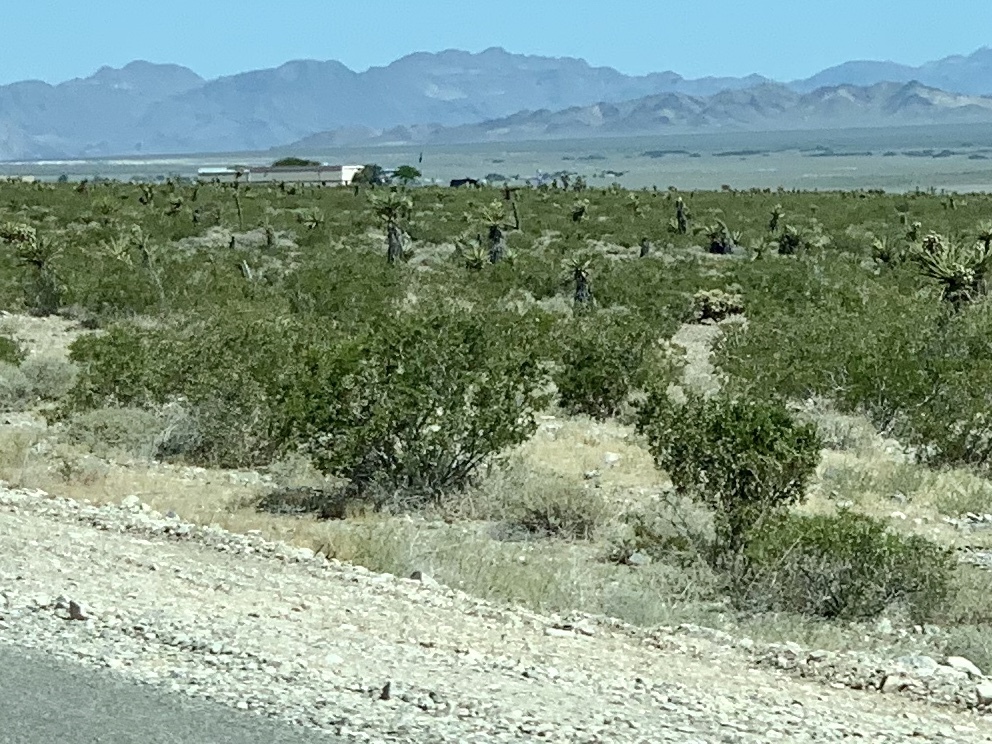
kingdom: Plantae
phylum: Tracheophyta
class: Magnoliopsida
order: Zygophyllales
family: Zygophyllaceae
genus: Larrea
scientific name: Larrea tridentata
